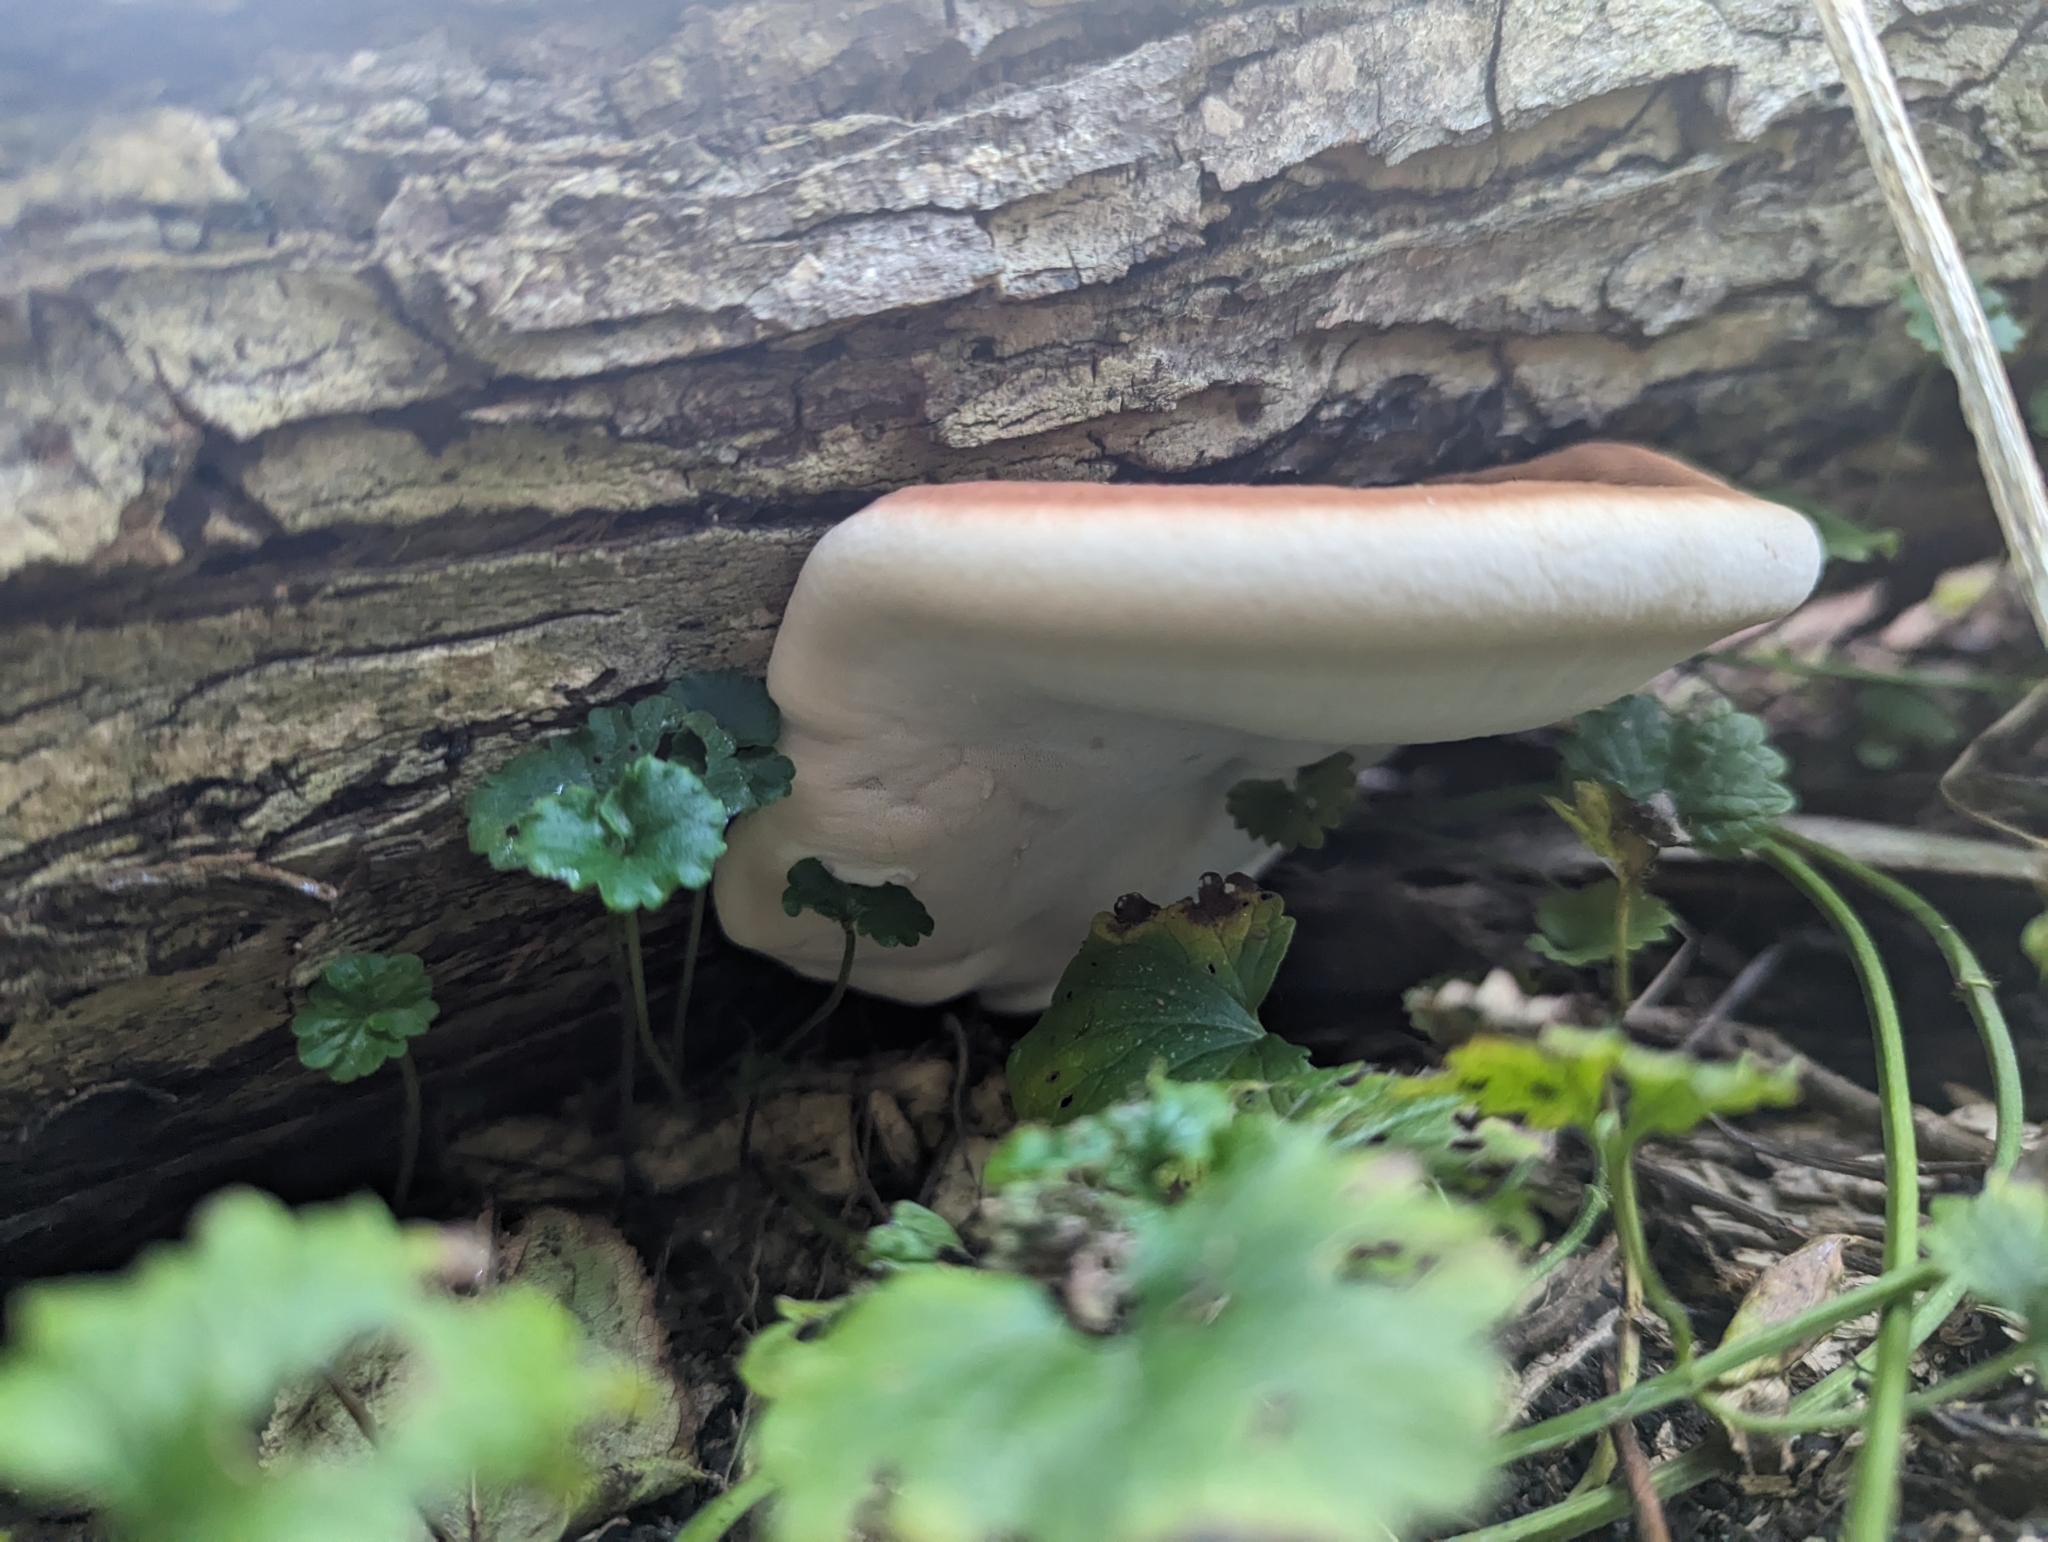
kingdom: Fungi
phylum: Basidiomycota
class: Agaricomycetes
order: Polyporales
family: Ischnodermataceae
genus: Ischnoderma
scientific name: Ischnoderma resinosum
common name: Resinous polypore
